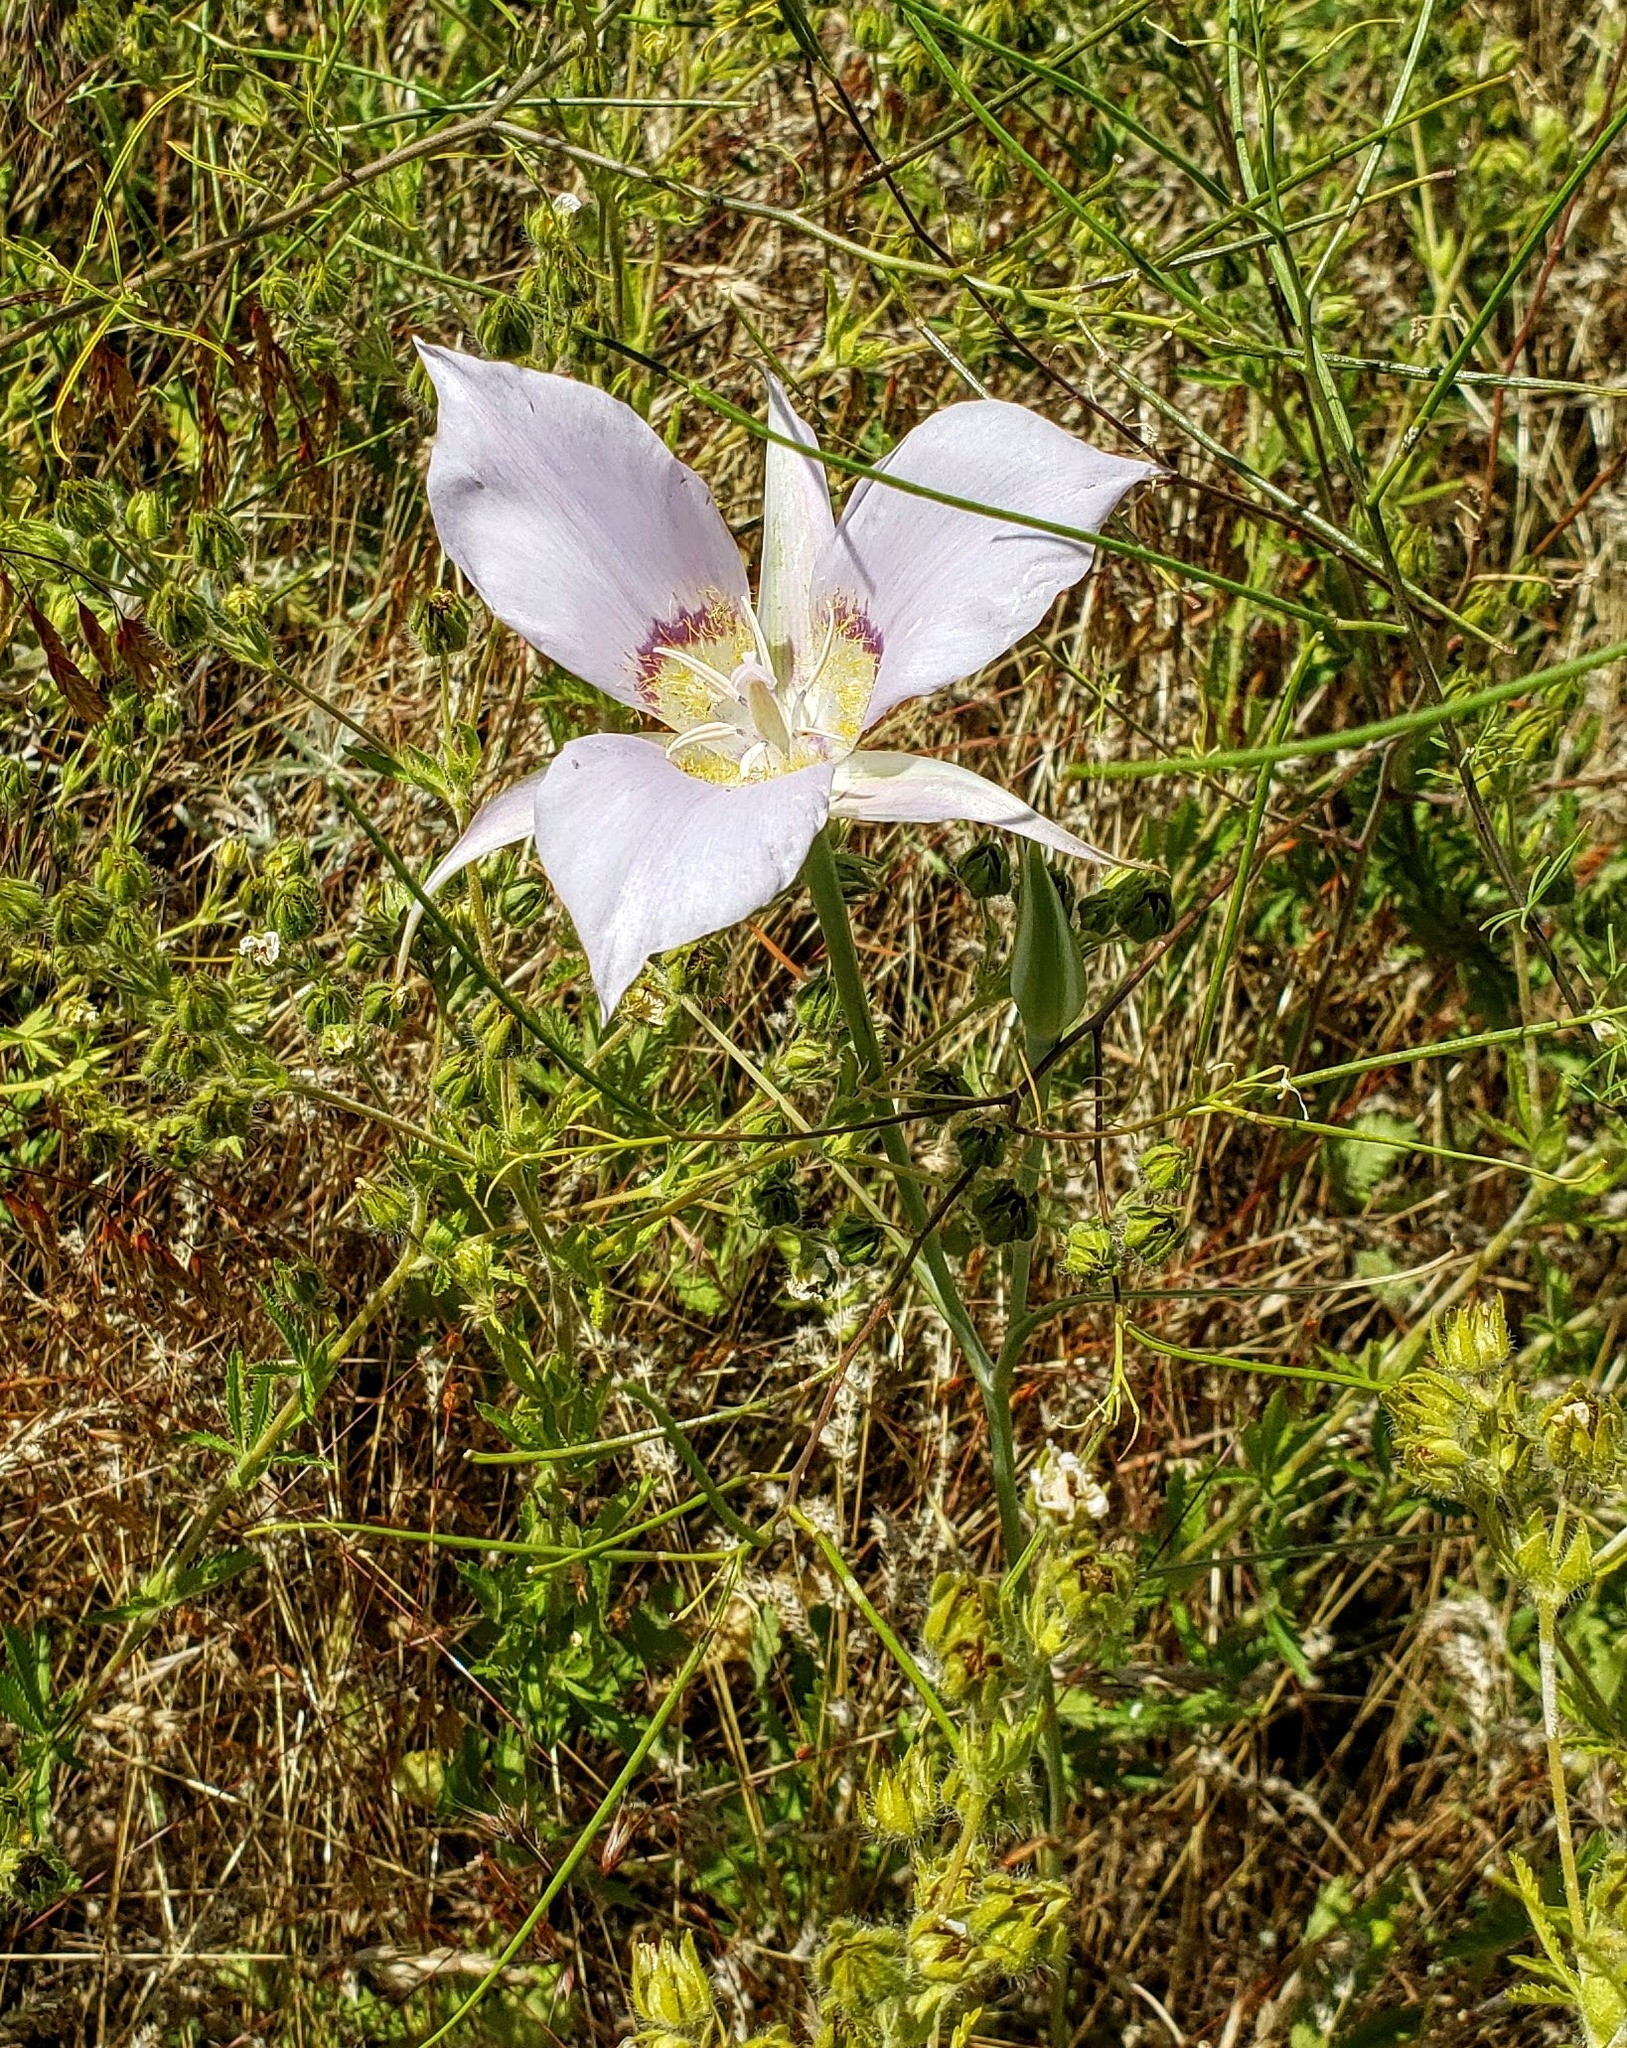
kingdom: Plantae
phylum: Tracheophyta
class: Liliopsida
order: Liliales
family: Liliaceae
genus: Calochortus
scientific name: Calochortus macrocarpus
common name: Green-band mariposa lily
